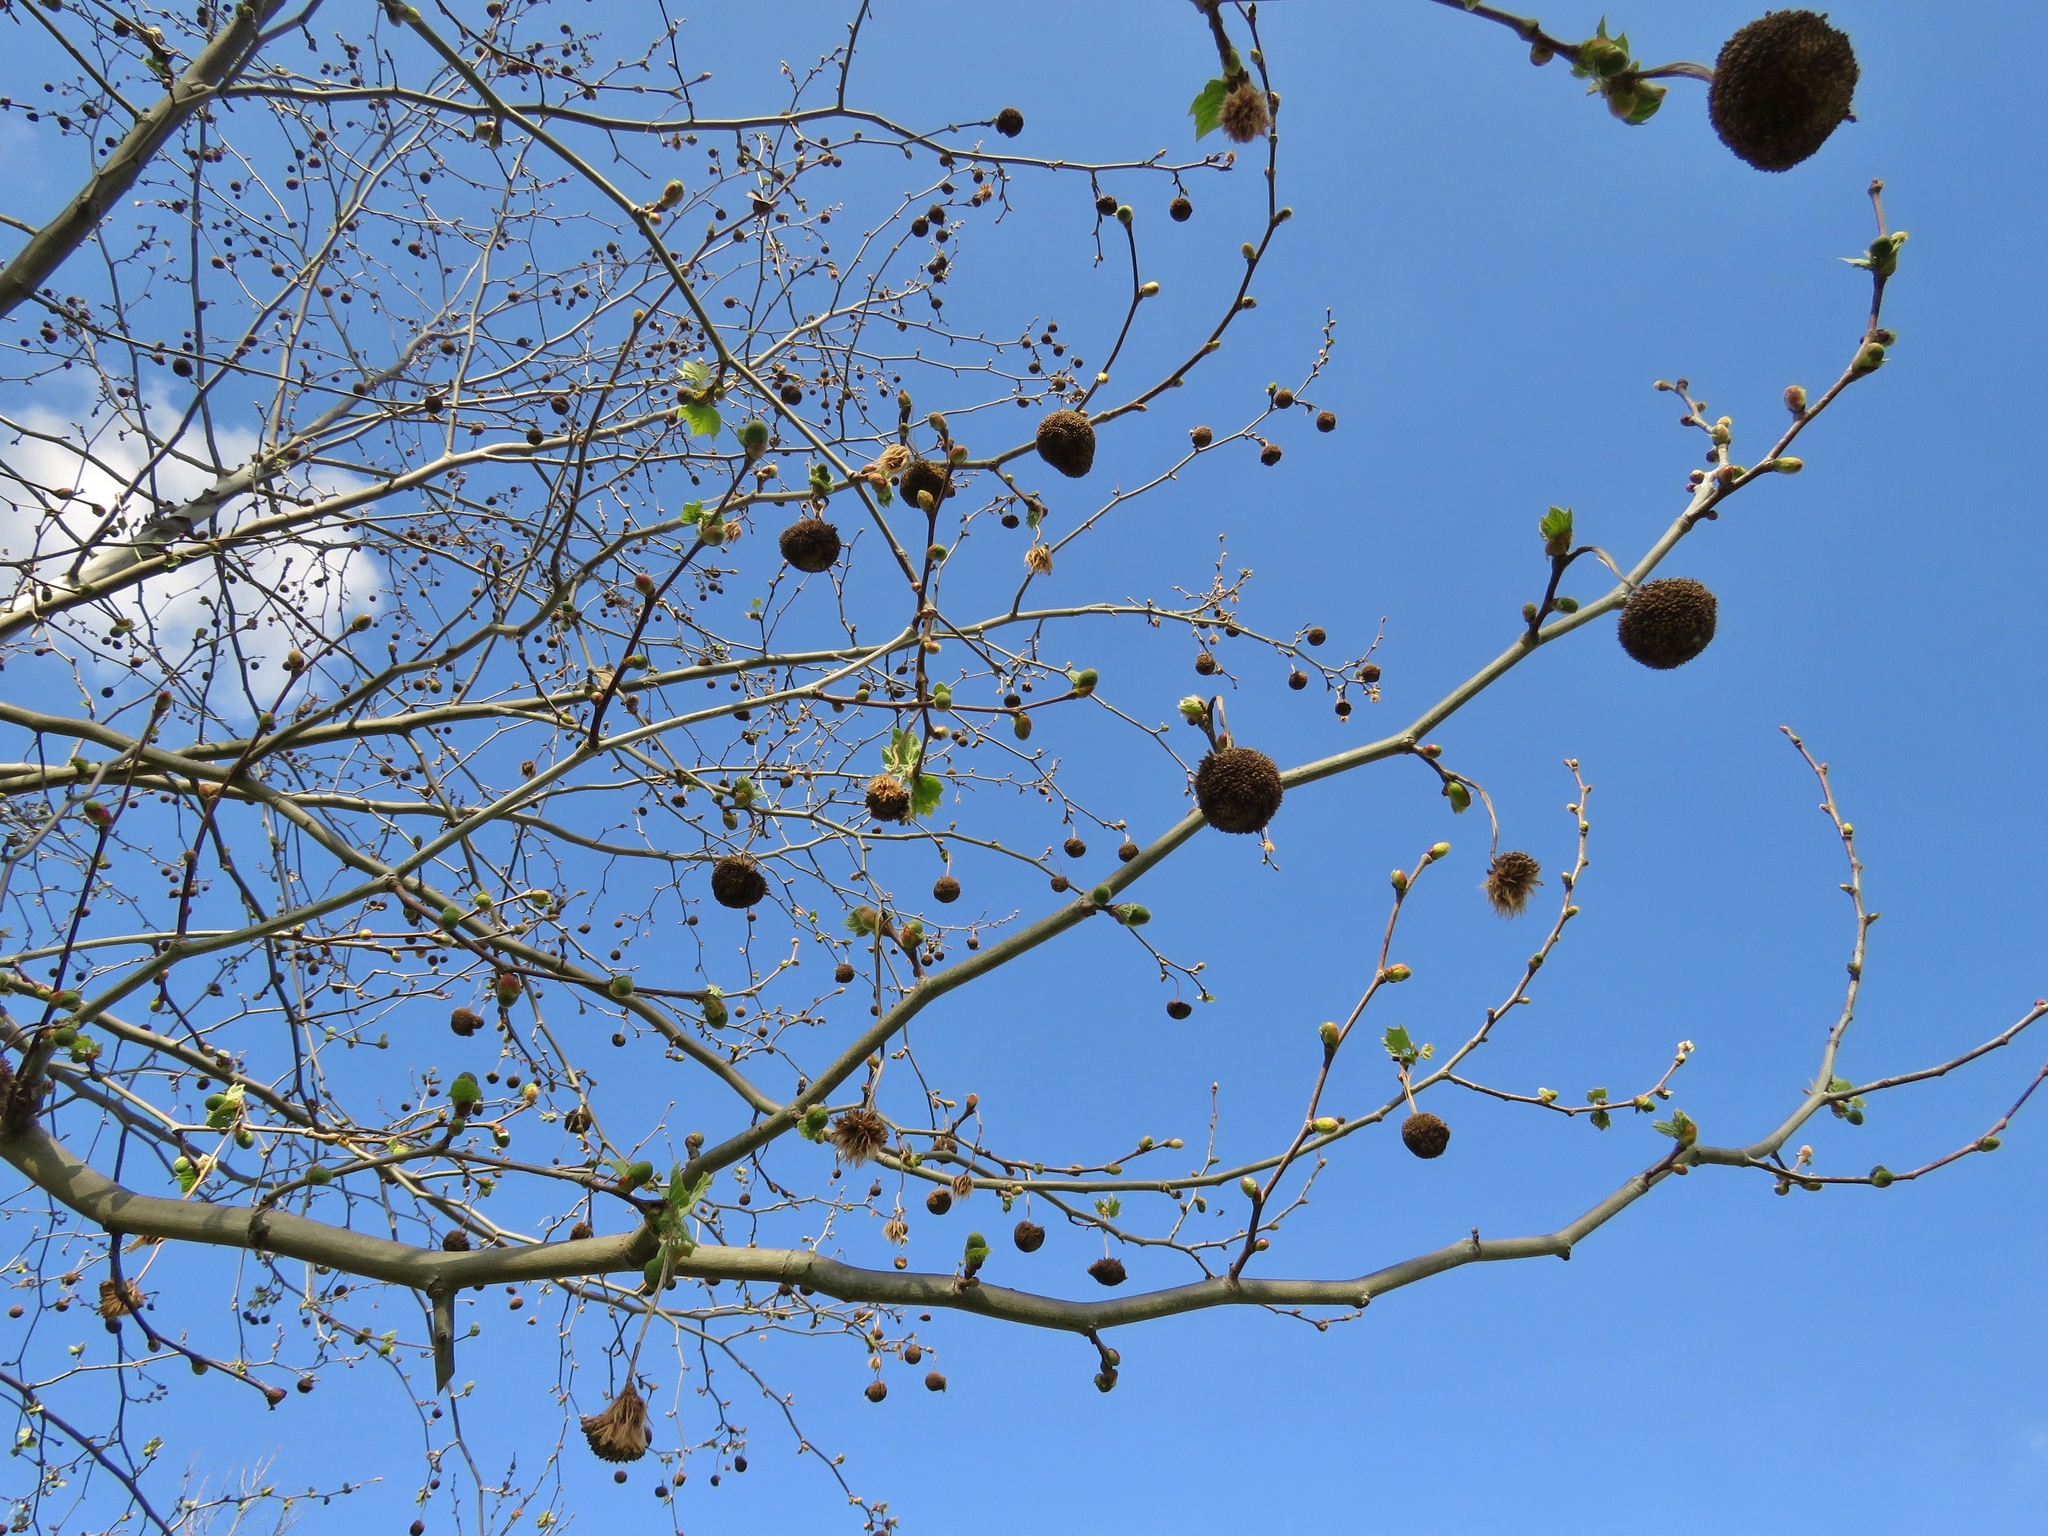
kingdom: Plantae
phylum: Tracheophyta
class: Magnoliopsida
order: Proteales
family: Platanaceae
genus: Platanus
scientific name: Platanus occidentalis
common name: American sycamore
